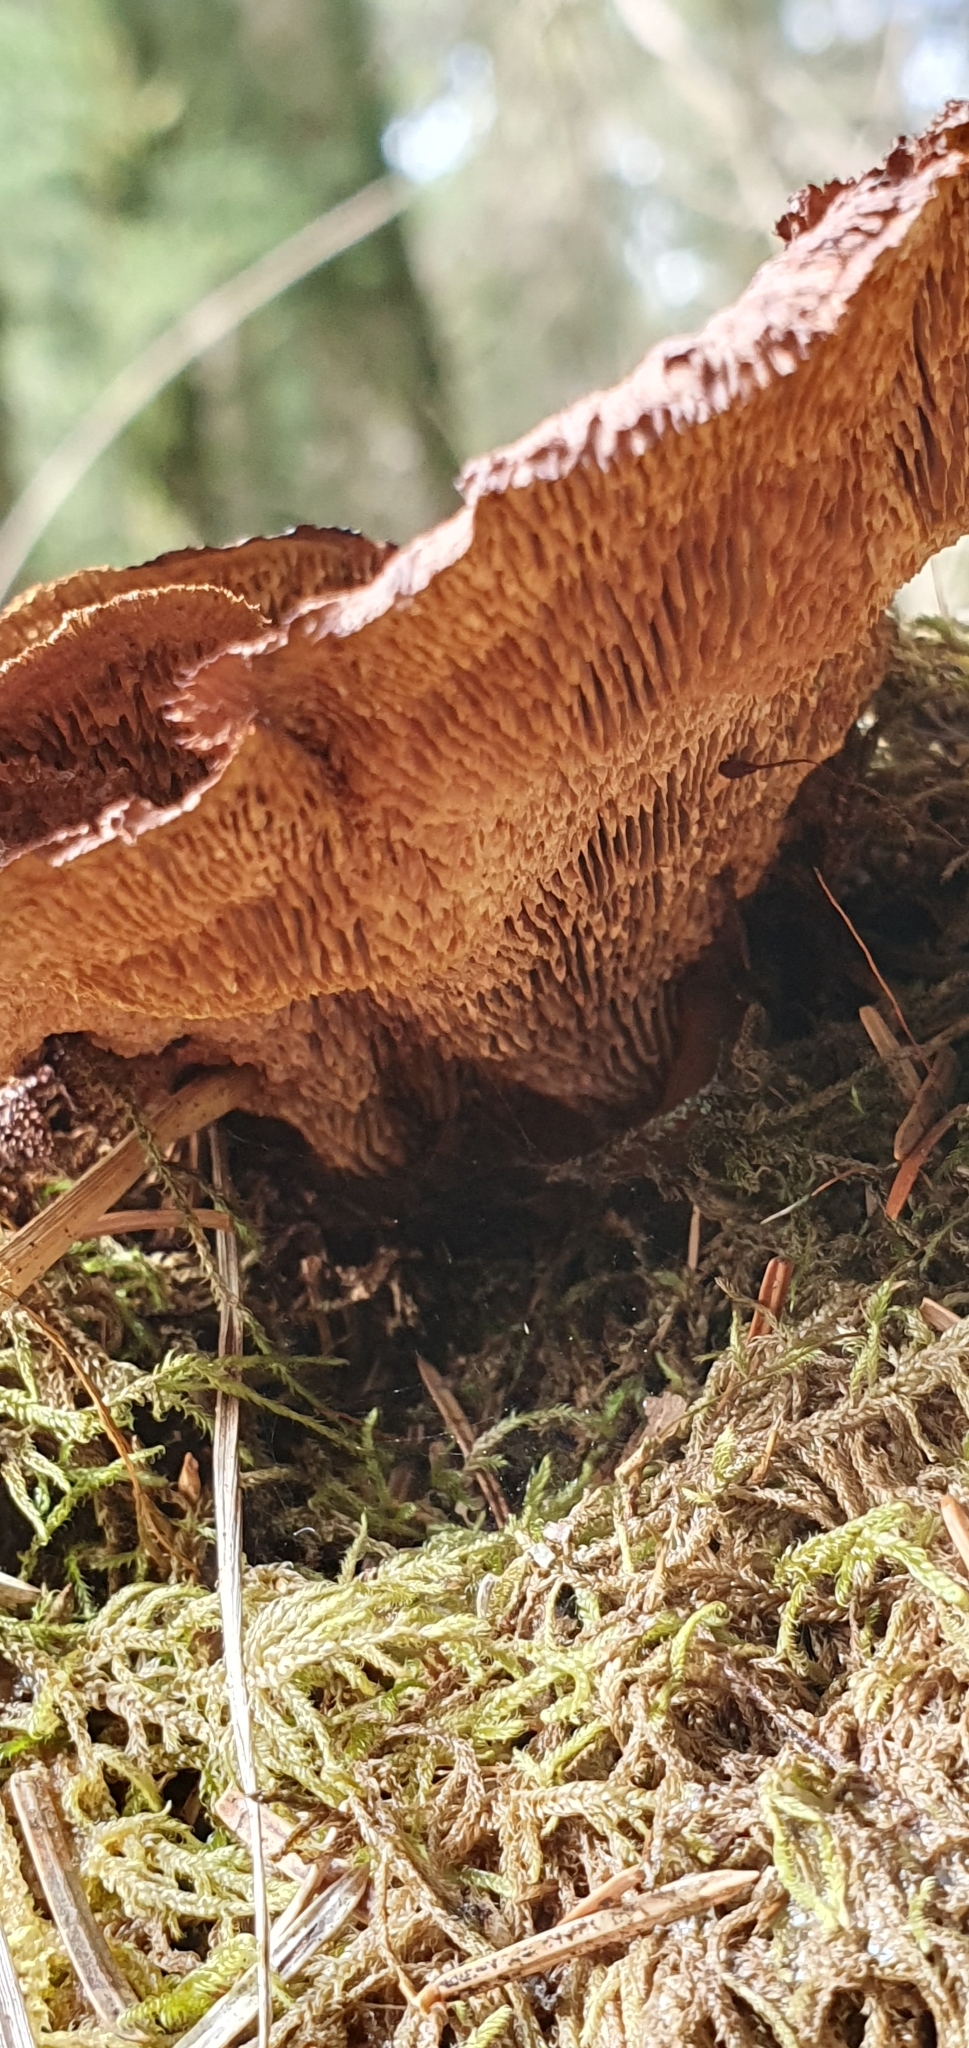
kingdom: Fungi
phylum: Basidiomycota
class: Agaricomycetes
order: Gloeophyllales
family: Gloeophyllaceae
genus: Gloeophyllum
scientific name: Gloeophyllum sepiarium
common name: Conifer mazegill
